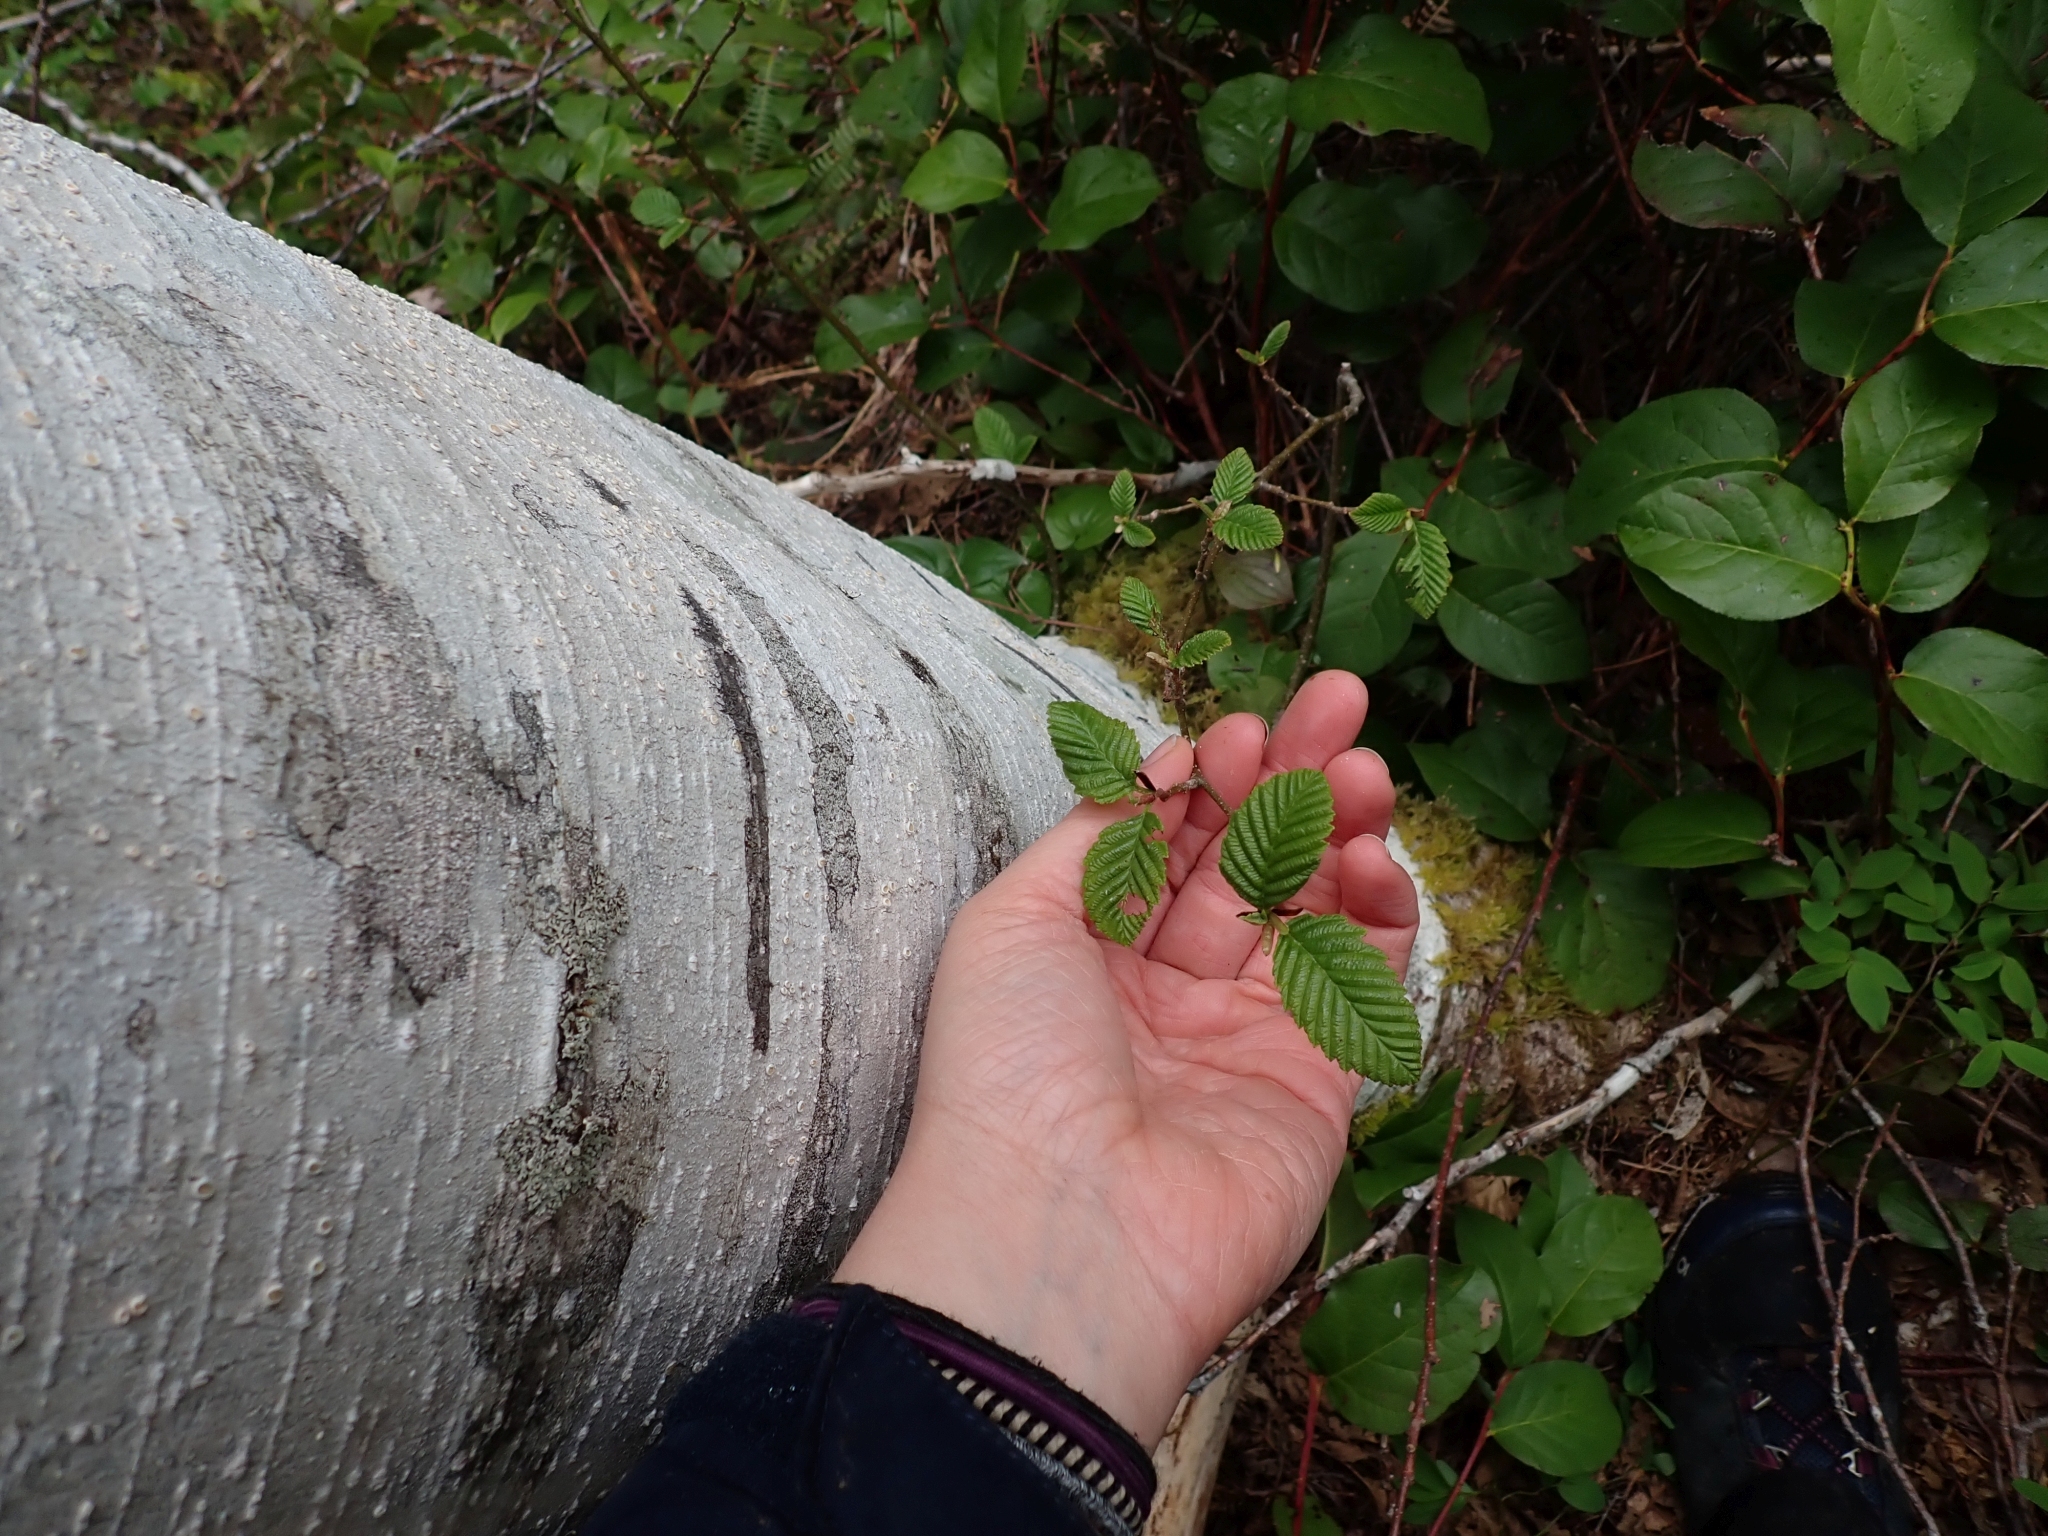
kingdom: Plantae
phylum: Tracheophyta
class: Magnoliopsida
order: Fagales
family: Betulaceae
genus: Alnus
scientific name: Alnus rubra
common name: Red alder
